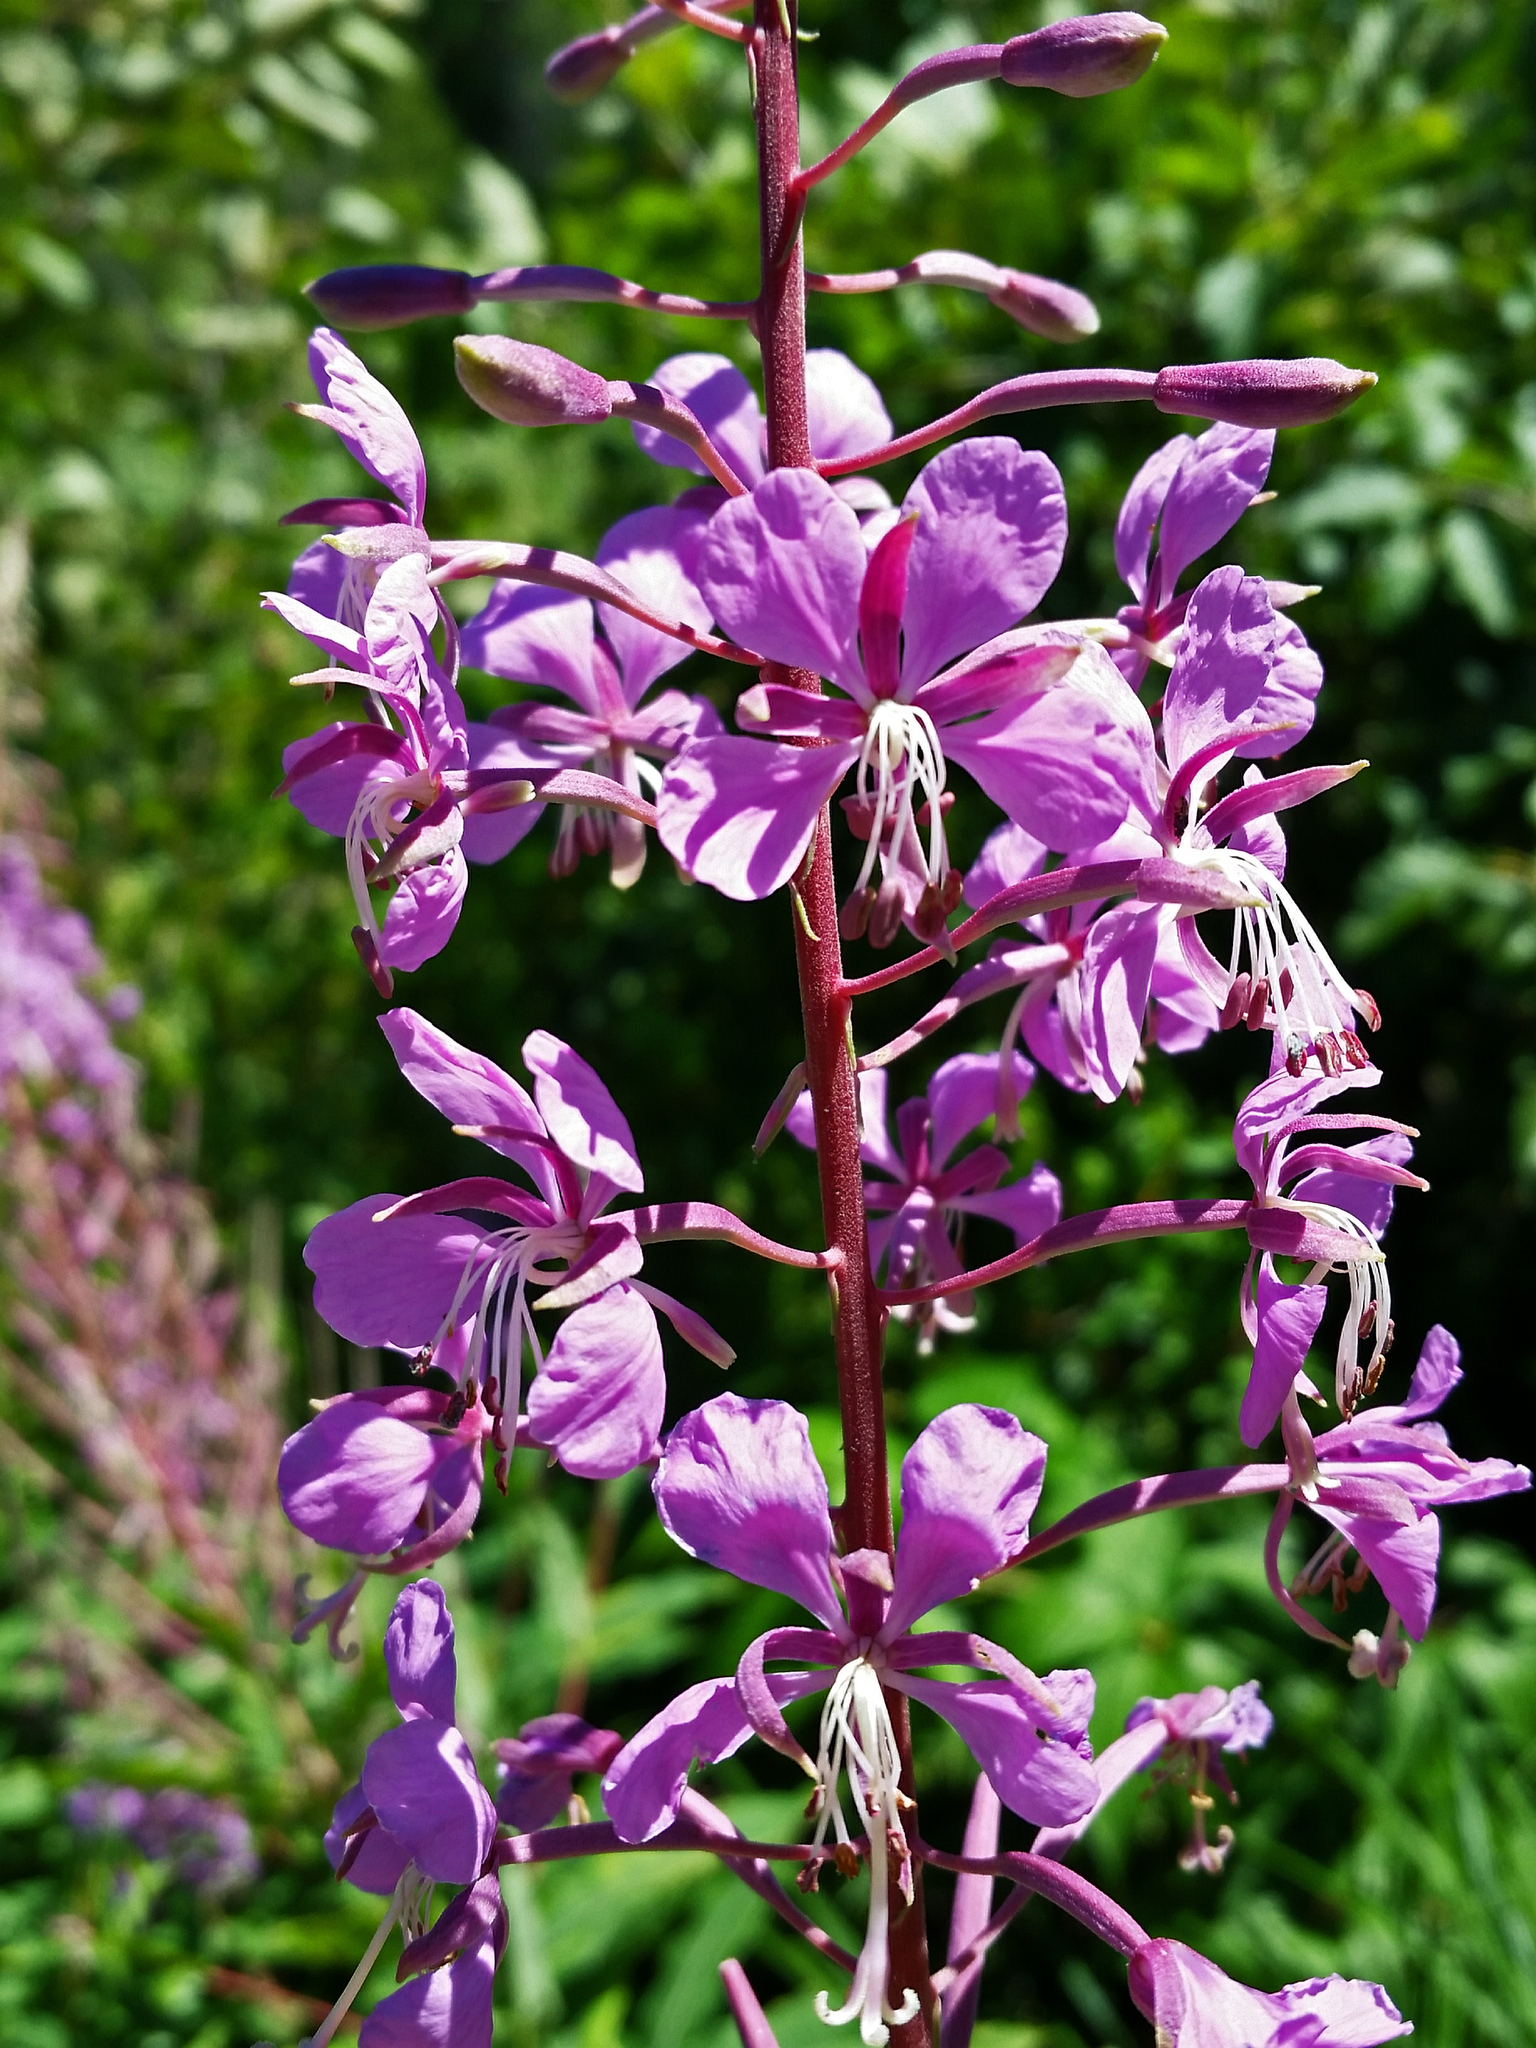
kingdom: Plantae
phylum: Tracheophyta
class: Magnoliopsida
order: Myrtales
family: Onagraceae
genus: Chamaenerion
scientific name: Chamaenerion angustifolium
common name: Fireweed
